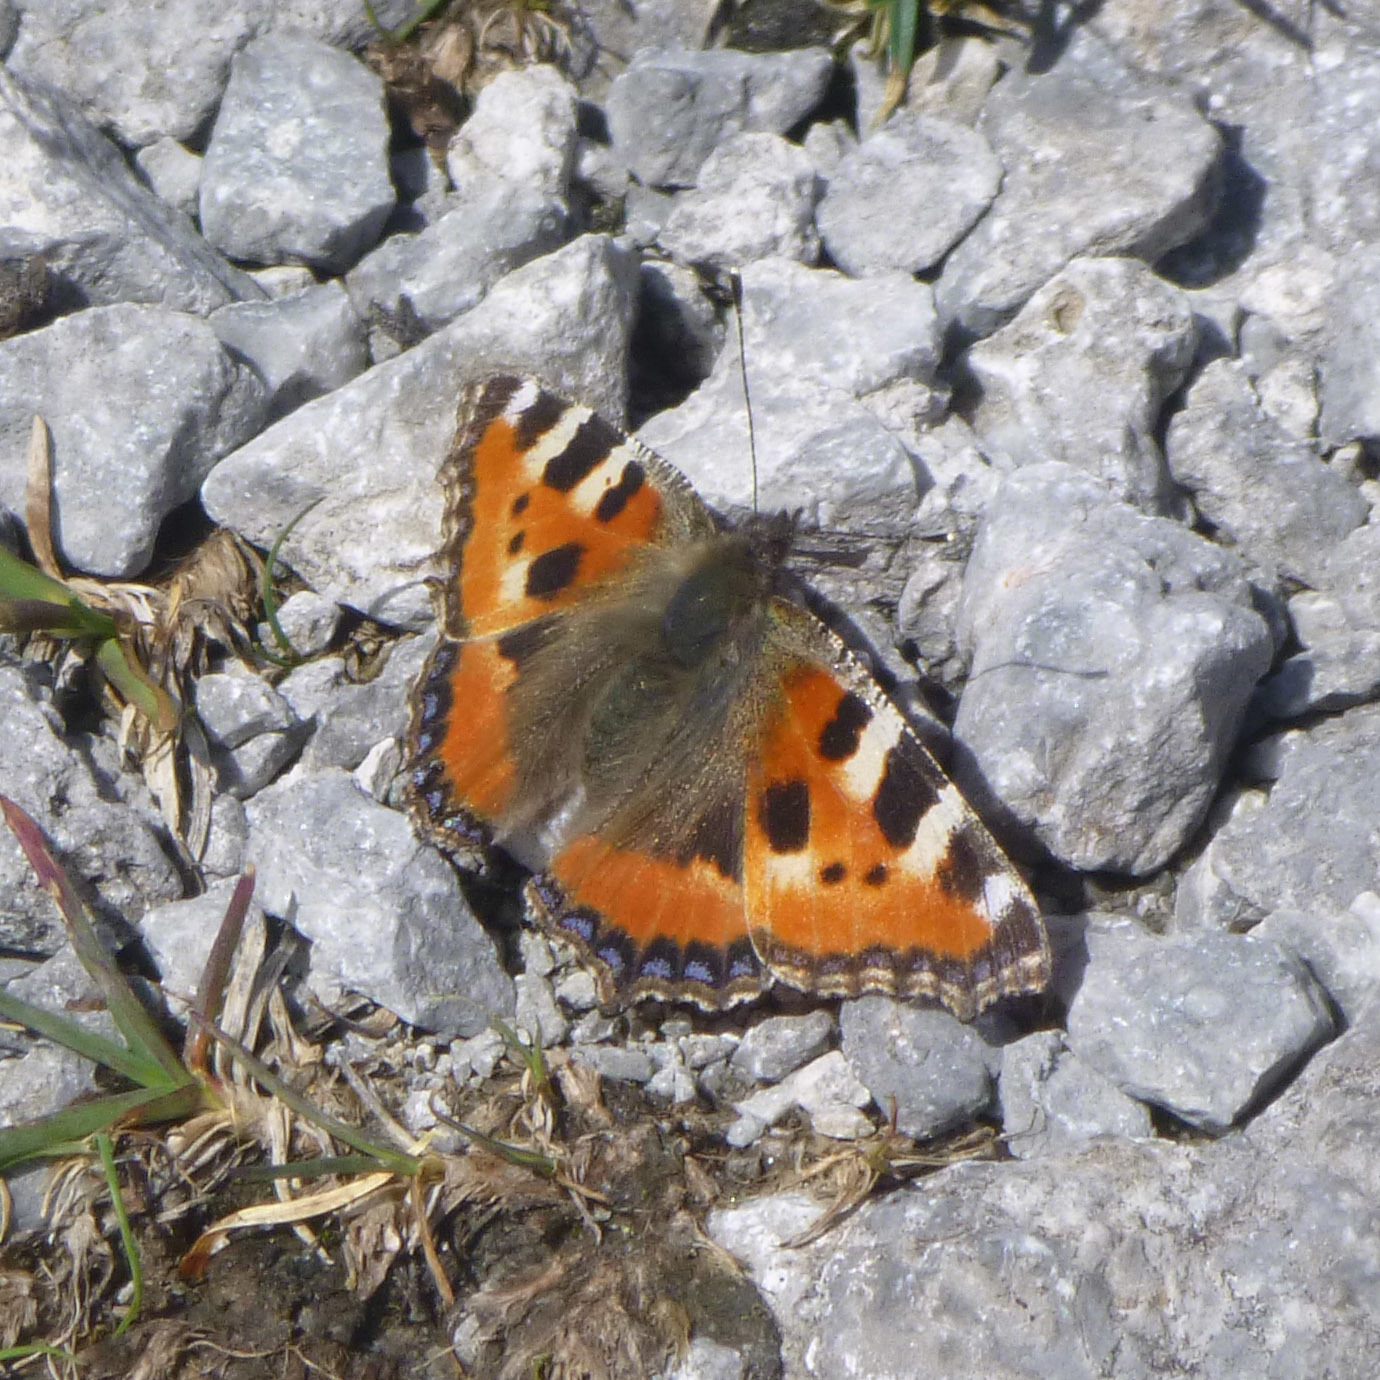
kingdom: Animalia
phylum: Arthropoda
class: Insecta
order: Lepidoptera
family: Nymphalidae
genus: Aglais
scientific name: Aglais urticae
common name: Small tortoiseshell
